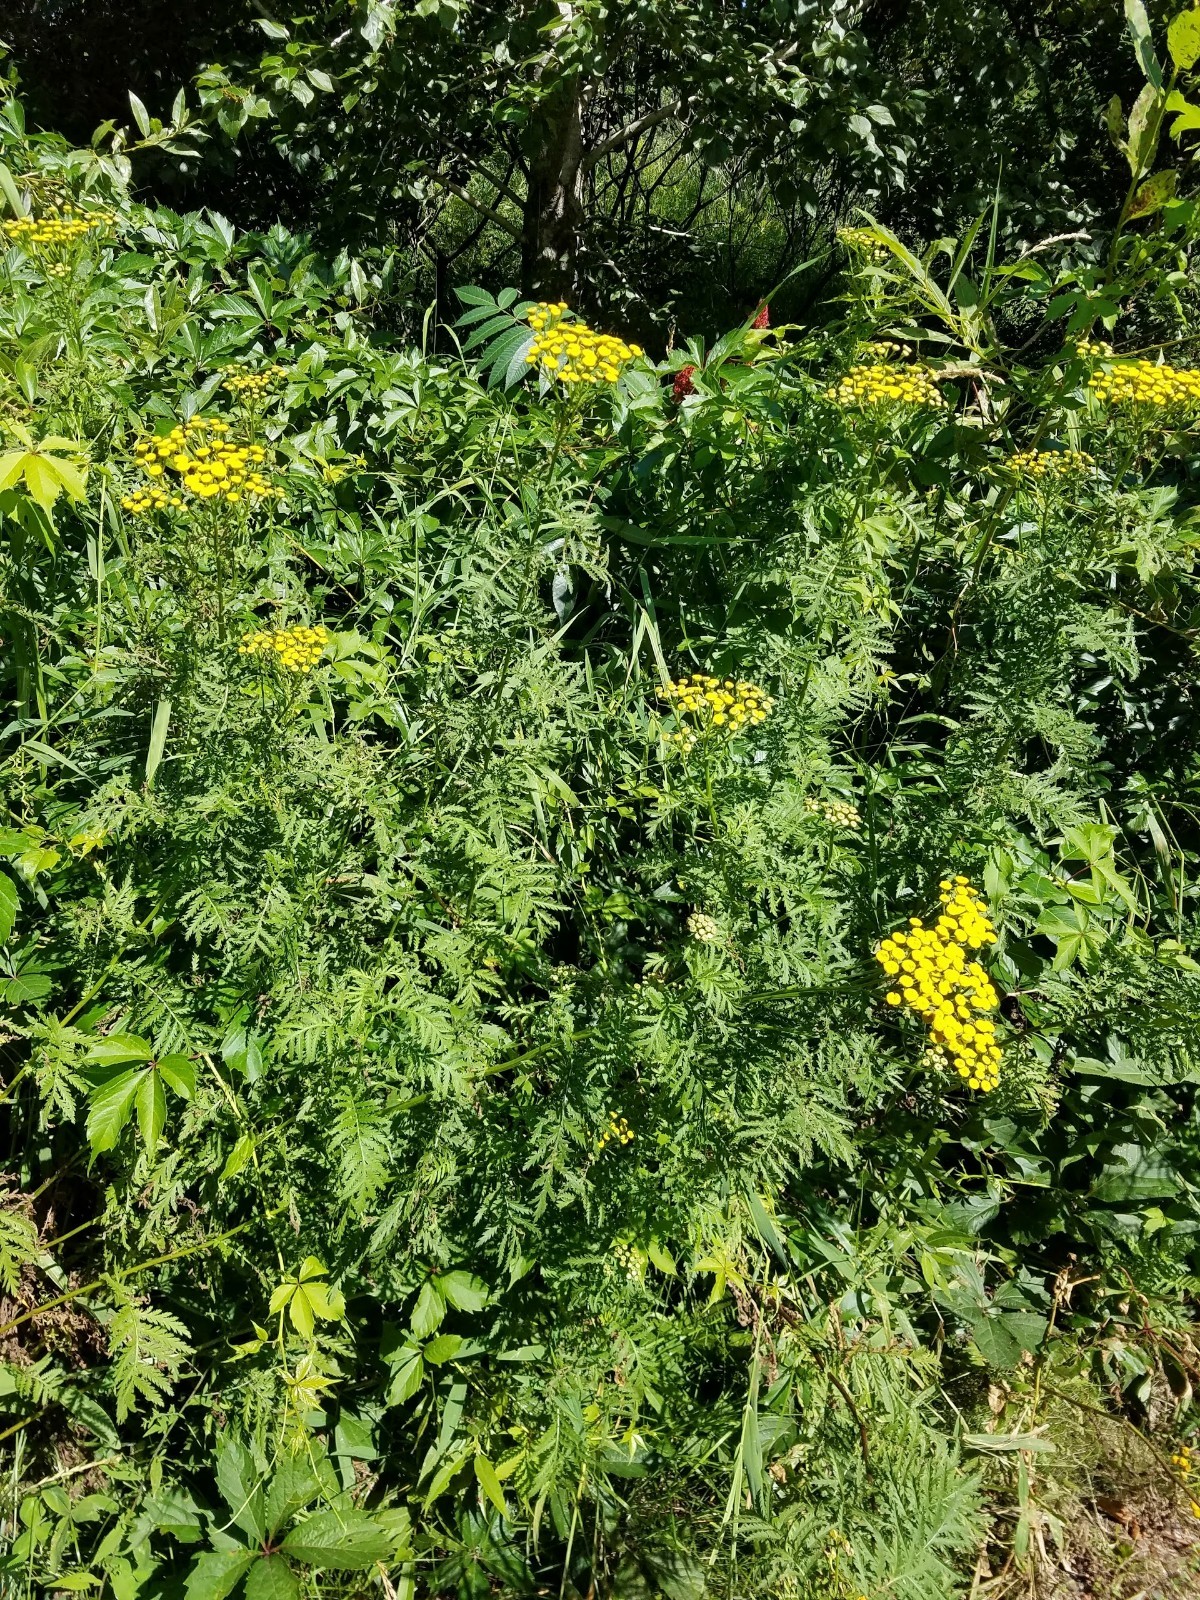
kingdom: Plantae
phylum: Tracheophyta
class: Magnoliopsida
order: Asterales
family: Asteraceae
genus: Tanacetum
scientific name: Tanacetum vulgare
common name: Common tansy
